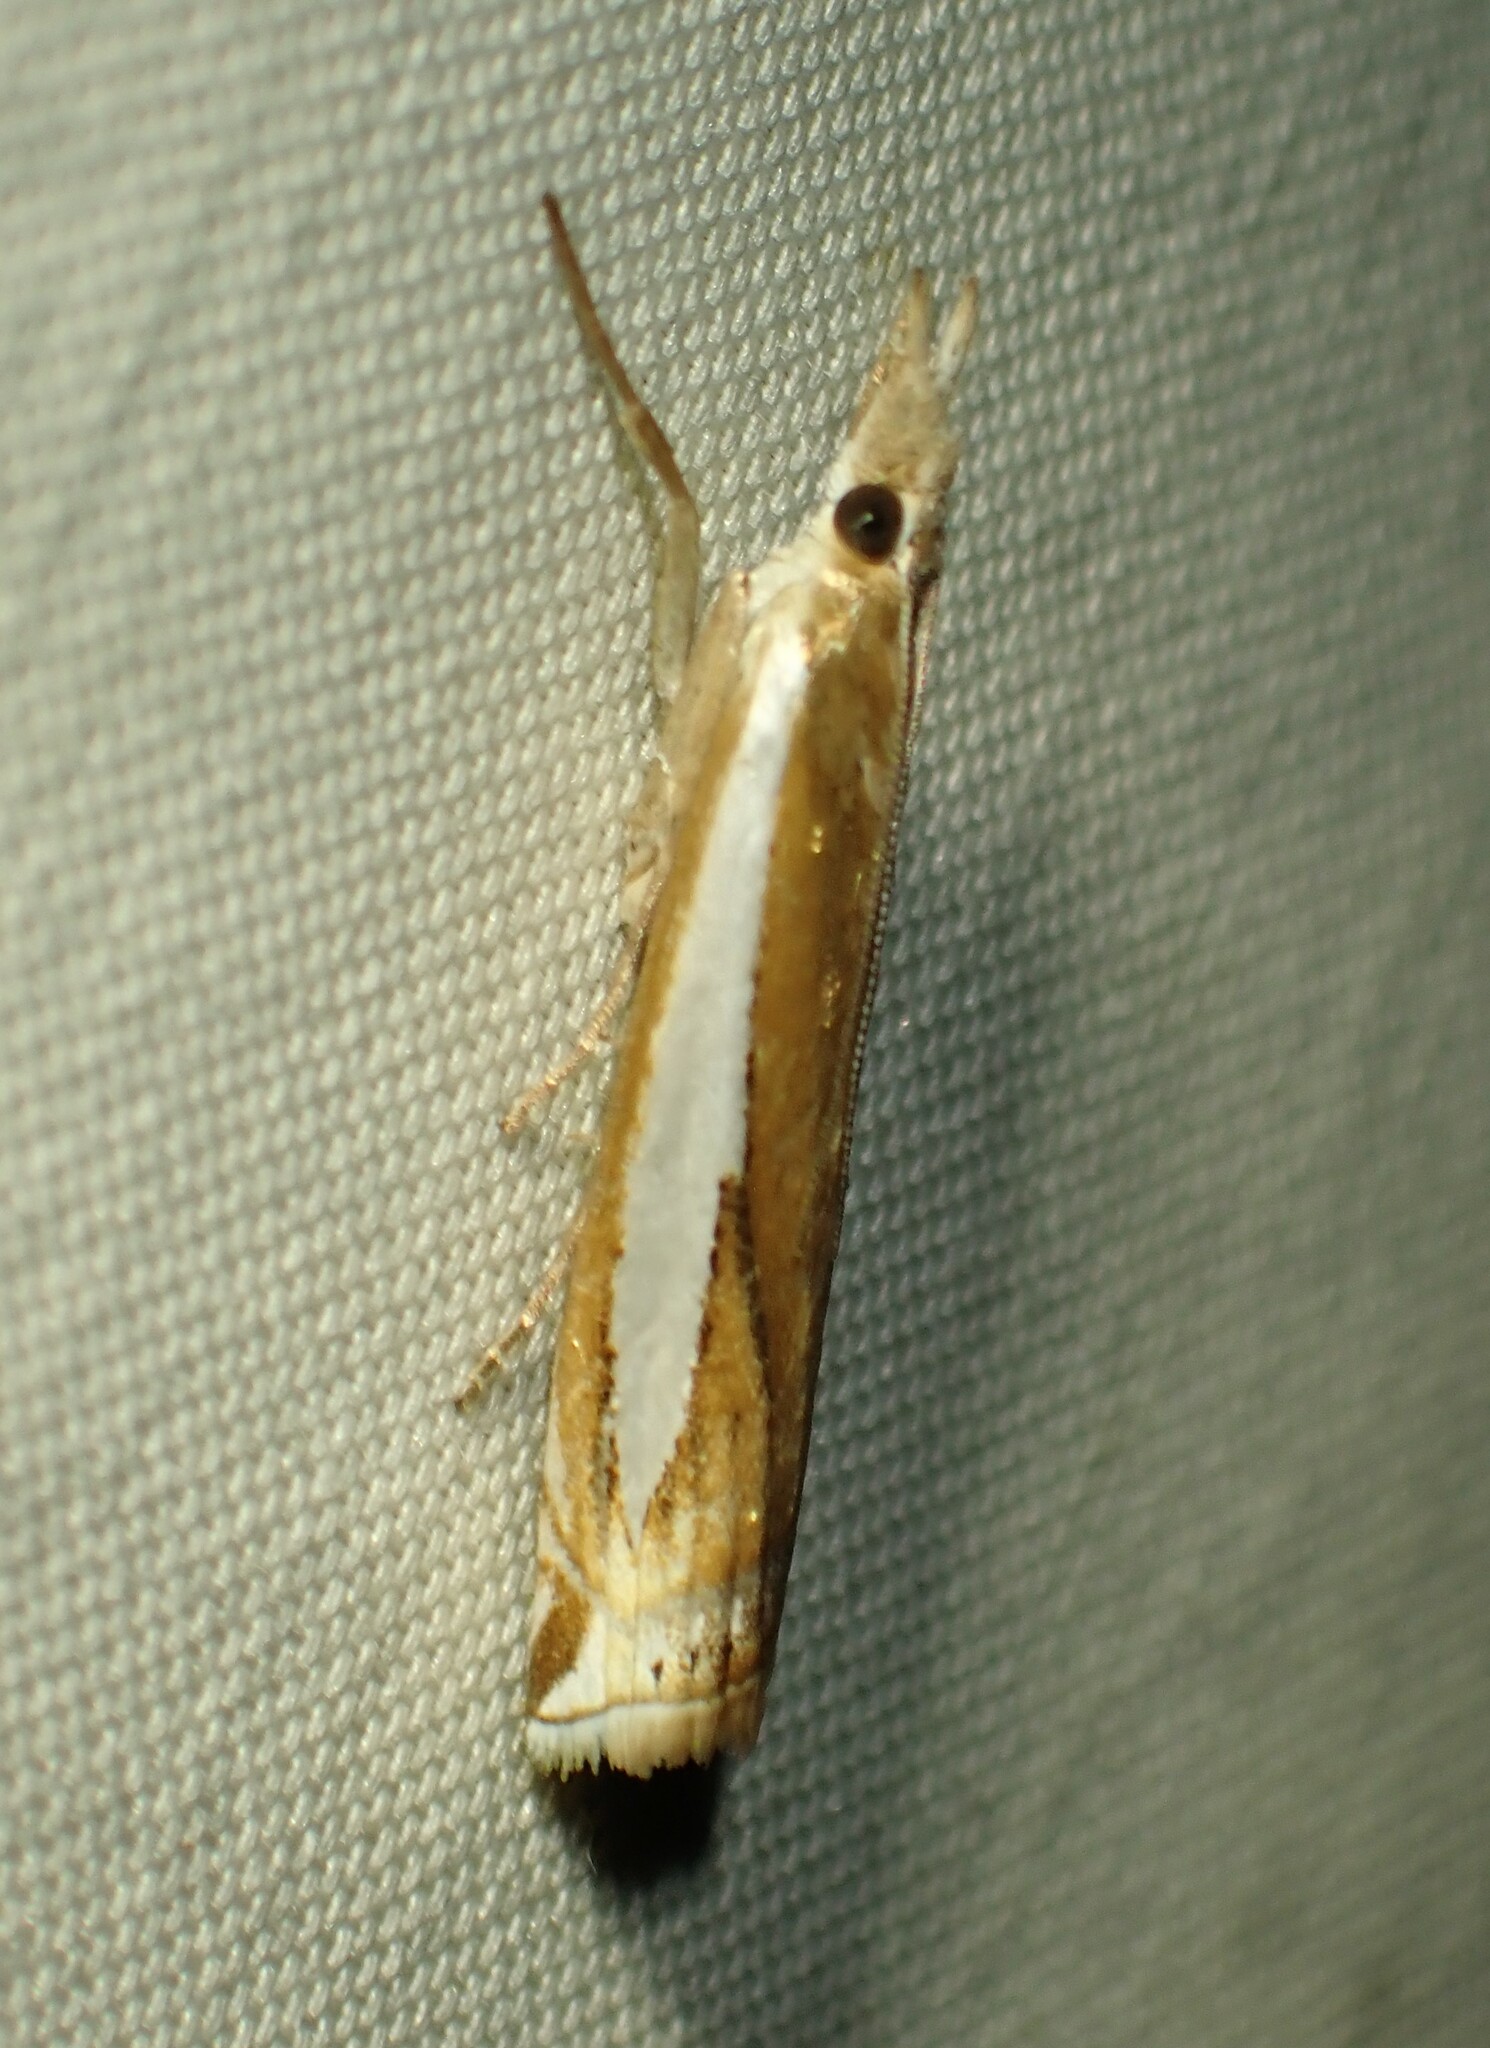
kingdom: Animalia
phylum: Arthropoda
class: Insecta
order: Lepidoptera
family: Crambidae
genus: Crambus
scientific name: Crambus praefectellus
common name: Common grass-veneer
